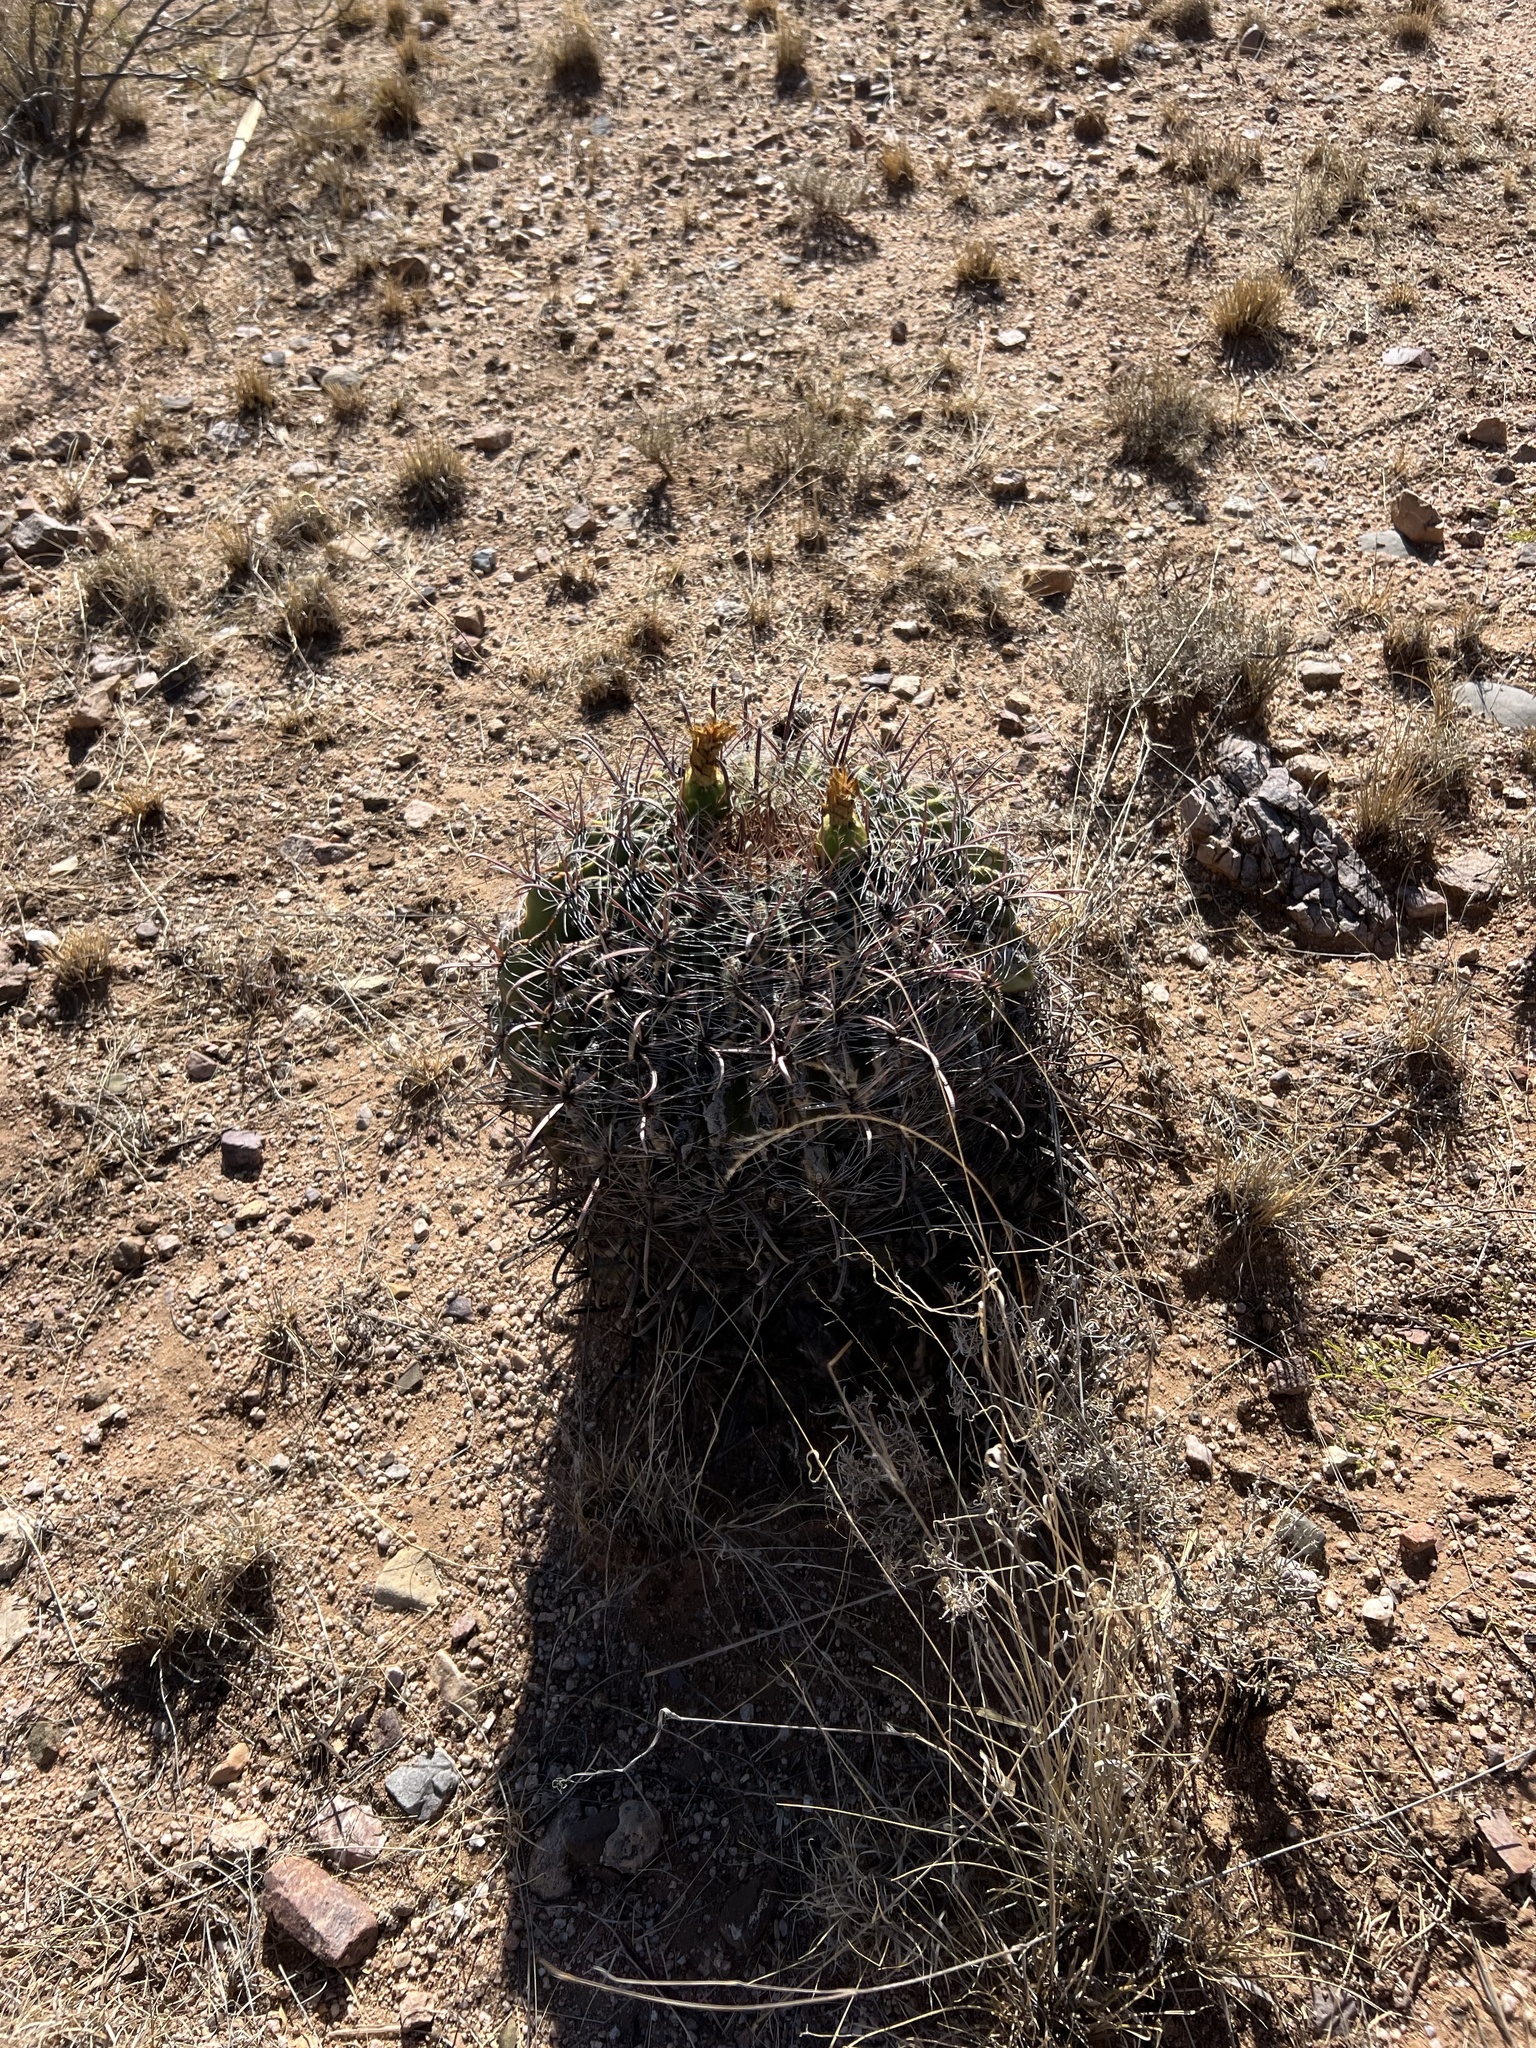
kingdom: Plantae
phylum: Tracheophyta
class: Magnoliopsida
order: Caryophyllales
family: Cactaceae
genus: Ferocactus
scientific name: Ferocactus wislizeni
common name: Candy barrel cactus
